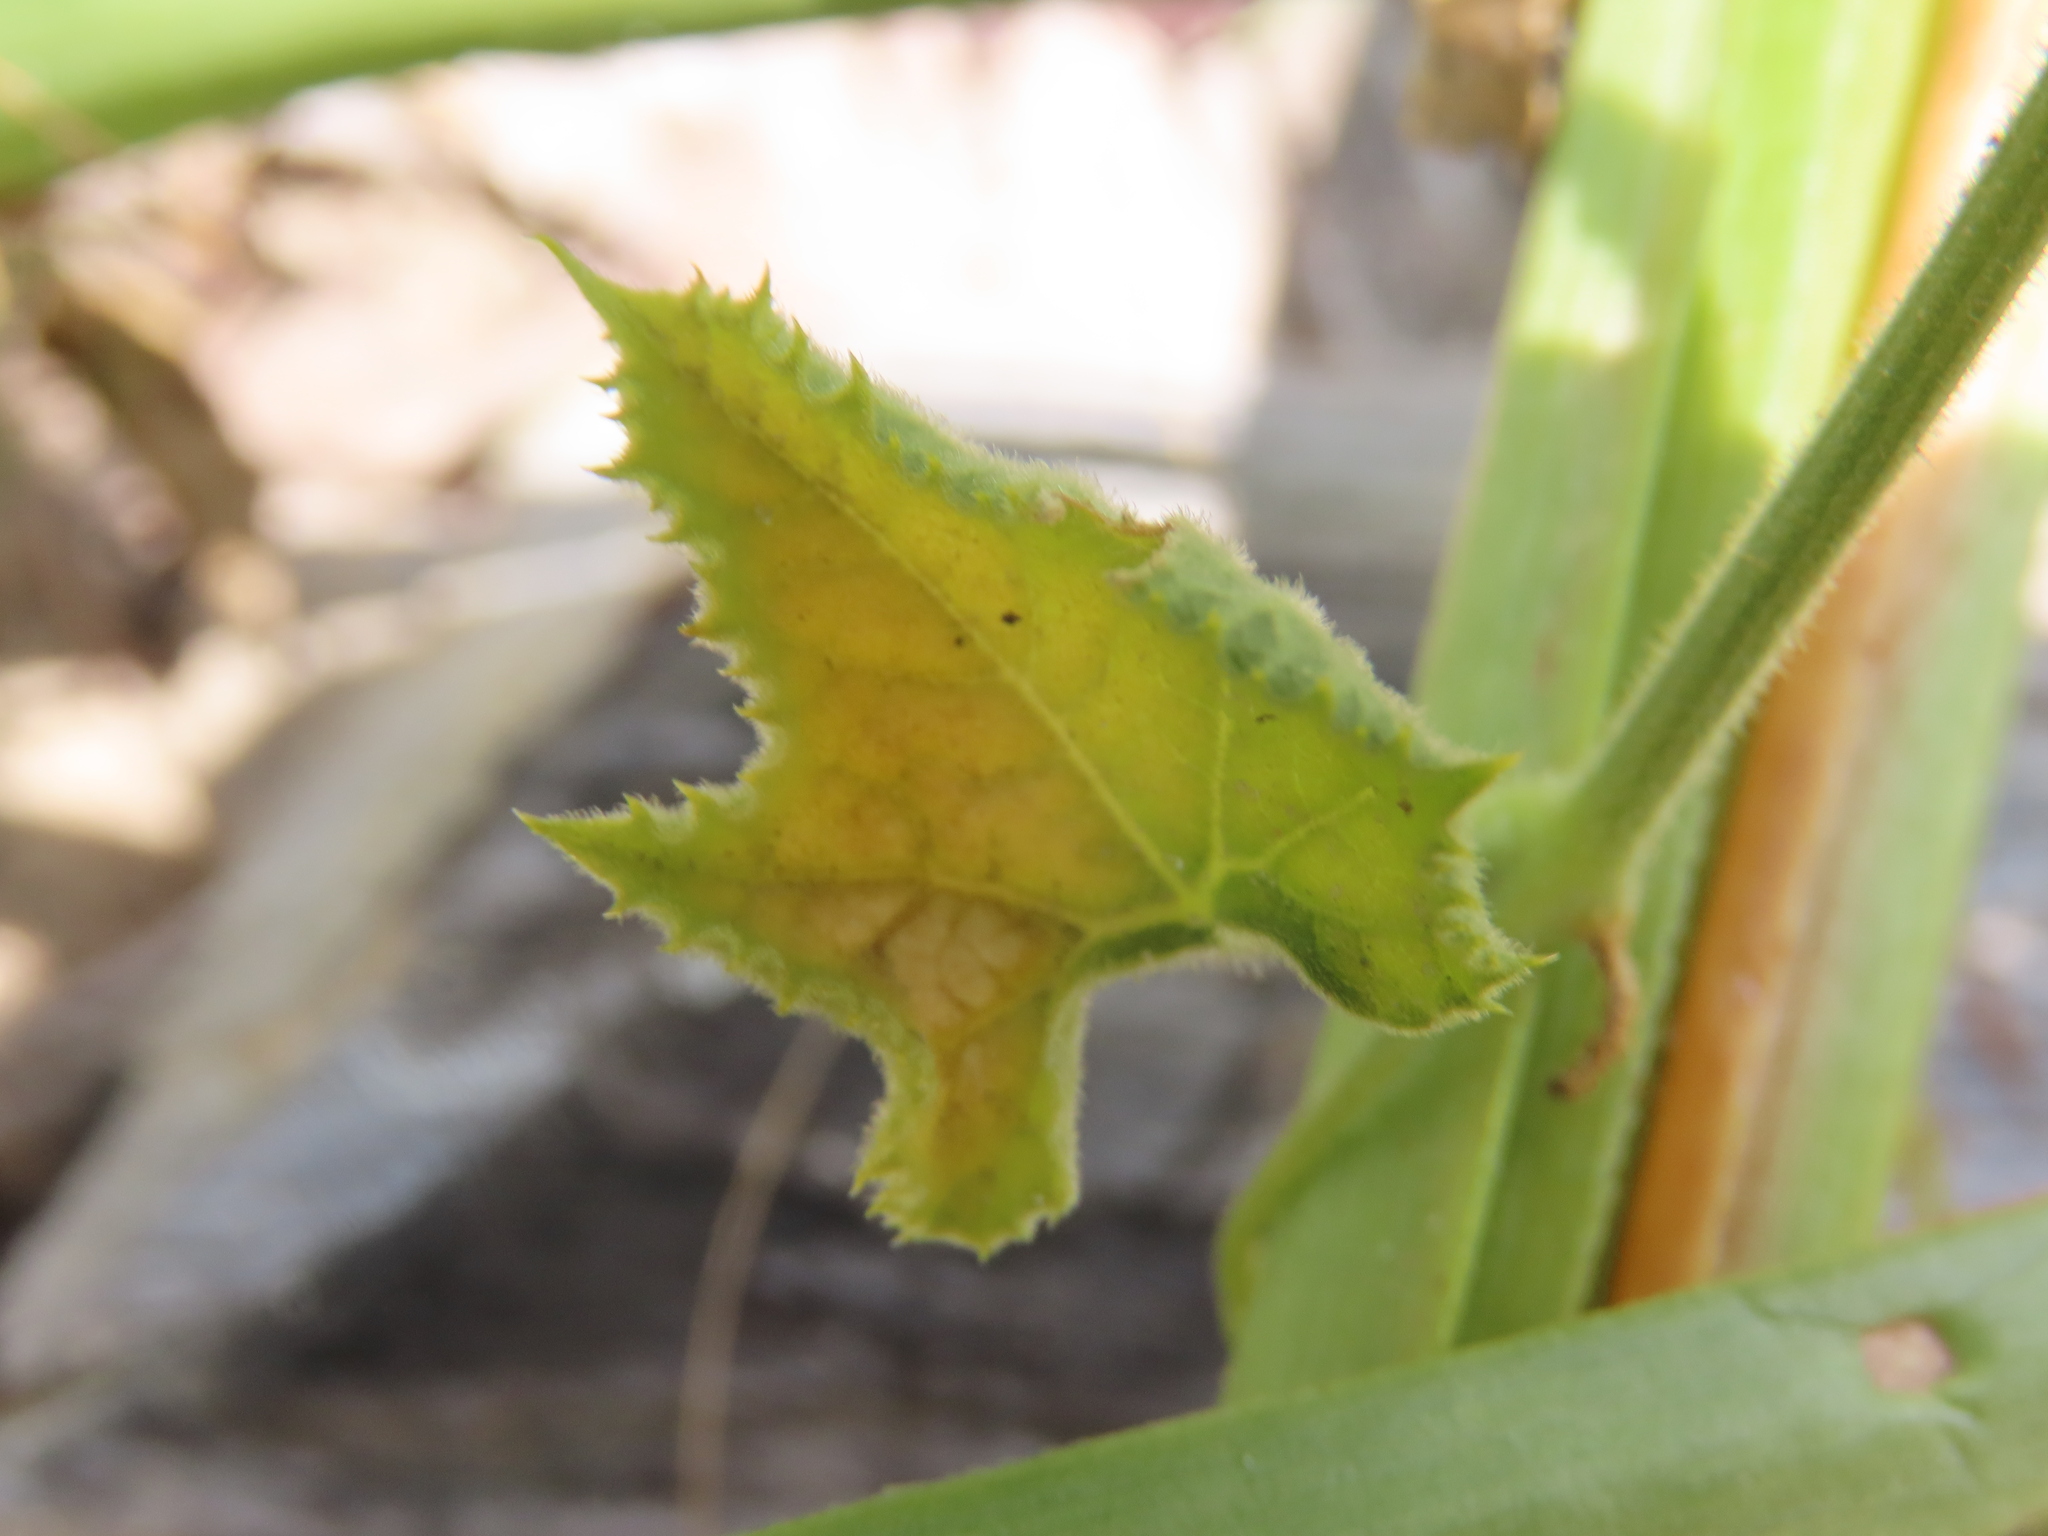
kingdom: Plantae
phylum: Tracheophyta
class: Magnoliopsida
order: Cucurbitales
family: Cucurbitaceae
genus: Kedrostis
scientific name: Kedrostis leloja
